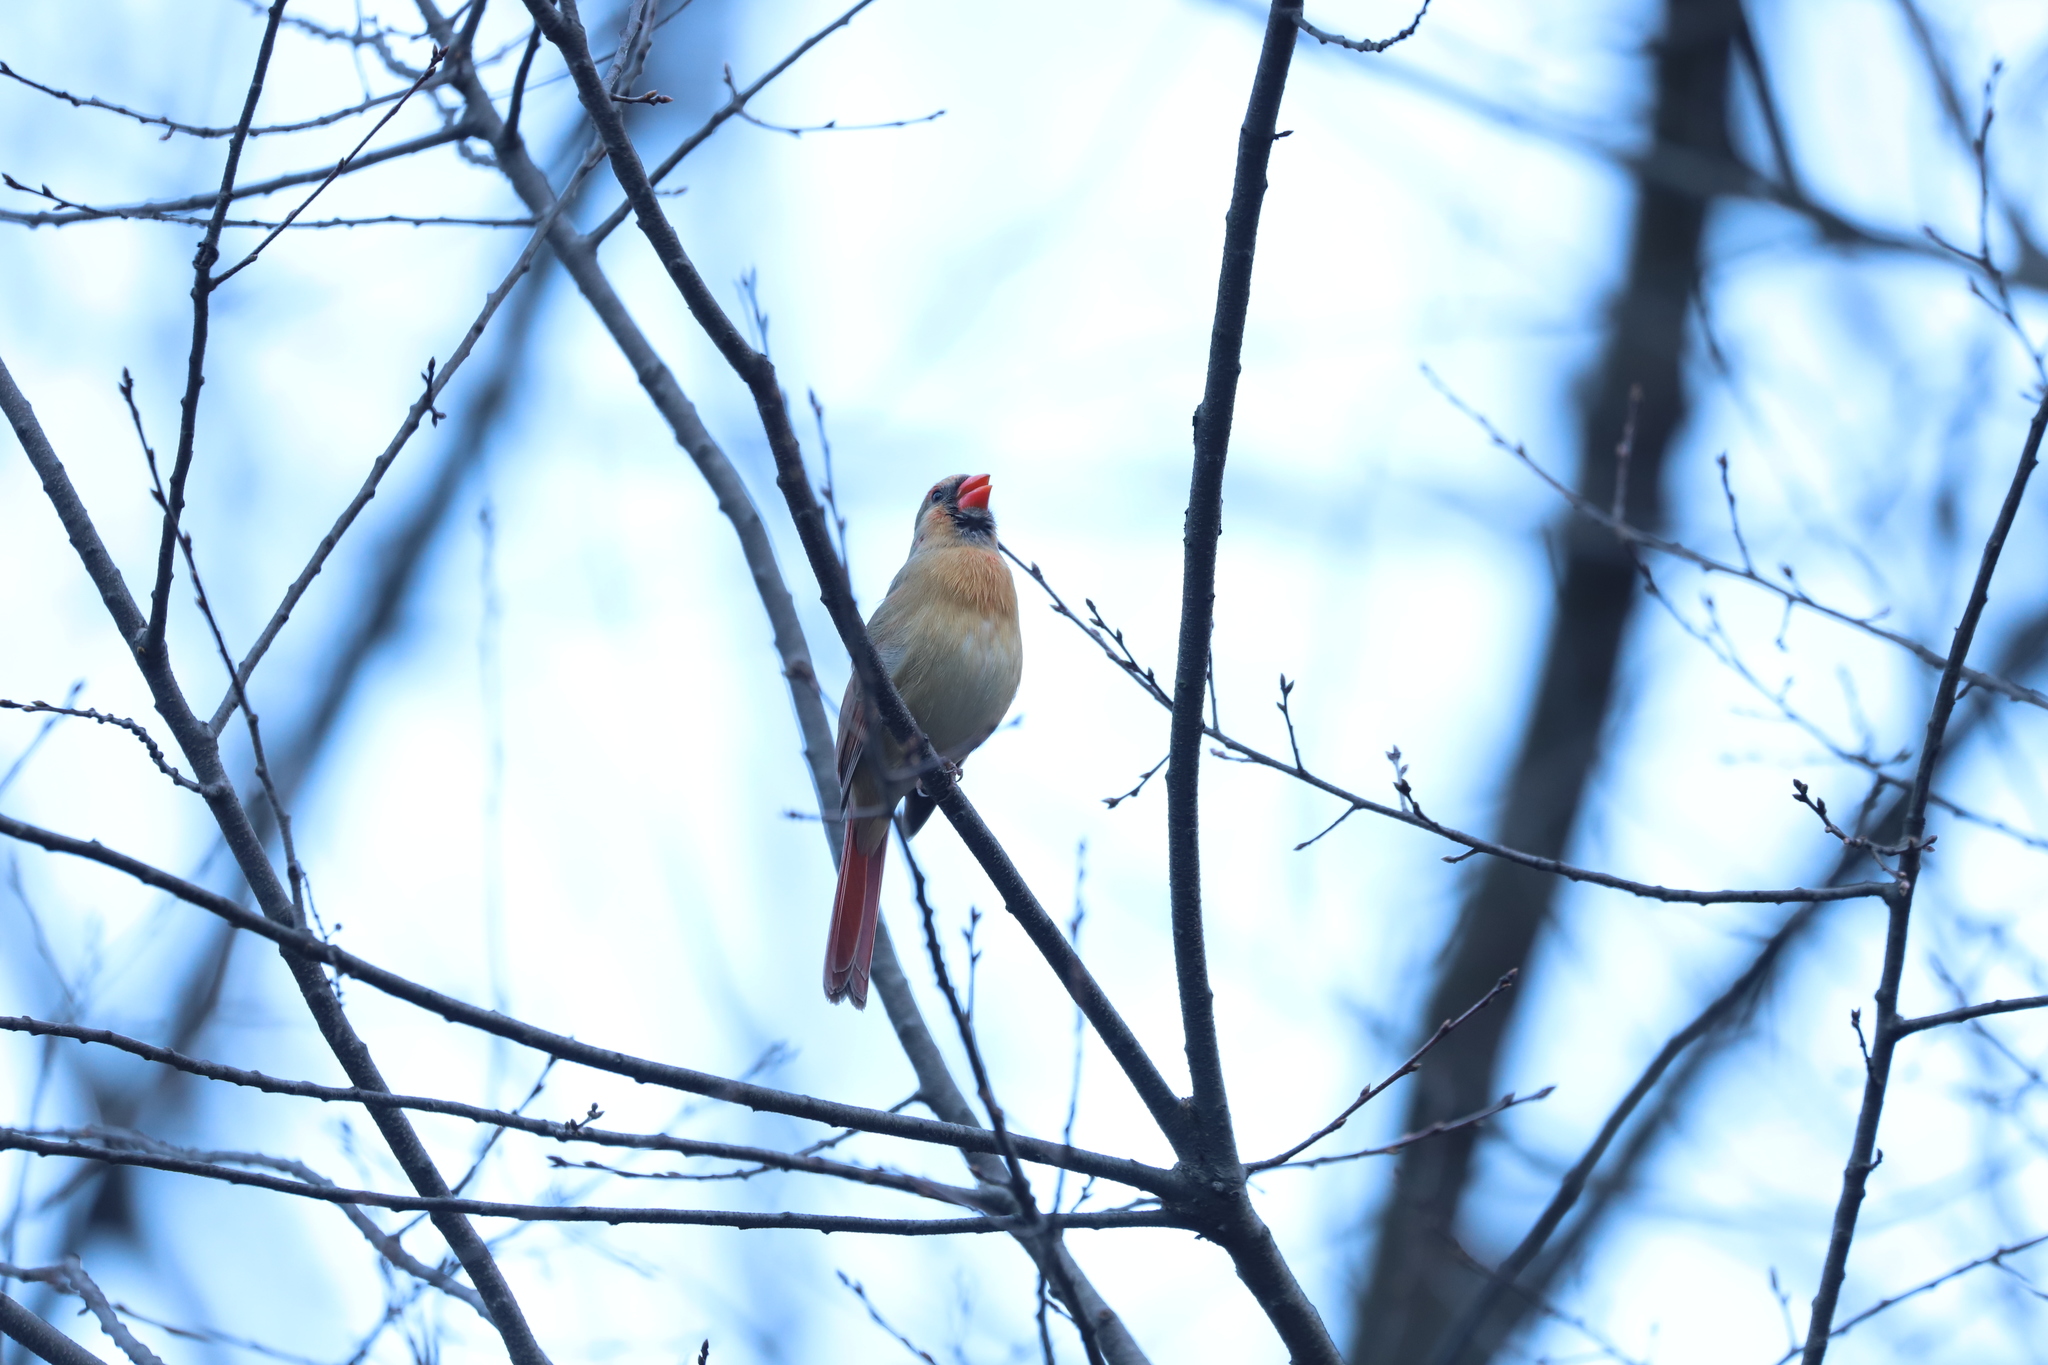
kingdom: Animalia
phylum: Chordata
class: Aves
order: Passeriformes
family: Cardinalidae
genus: Cardinalis
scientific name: Cardinalis cardinalis
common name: Northern cardinal
